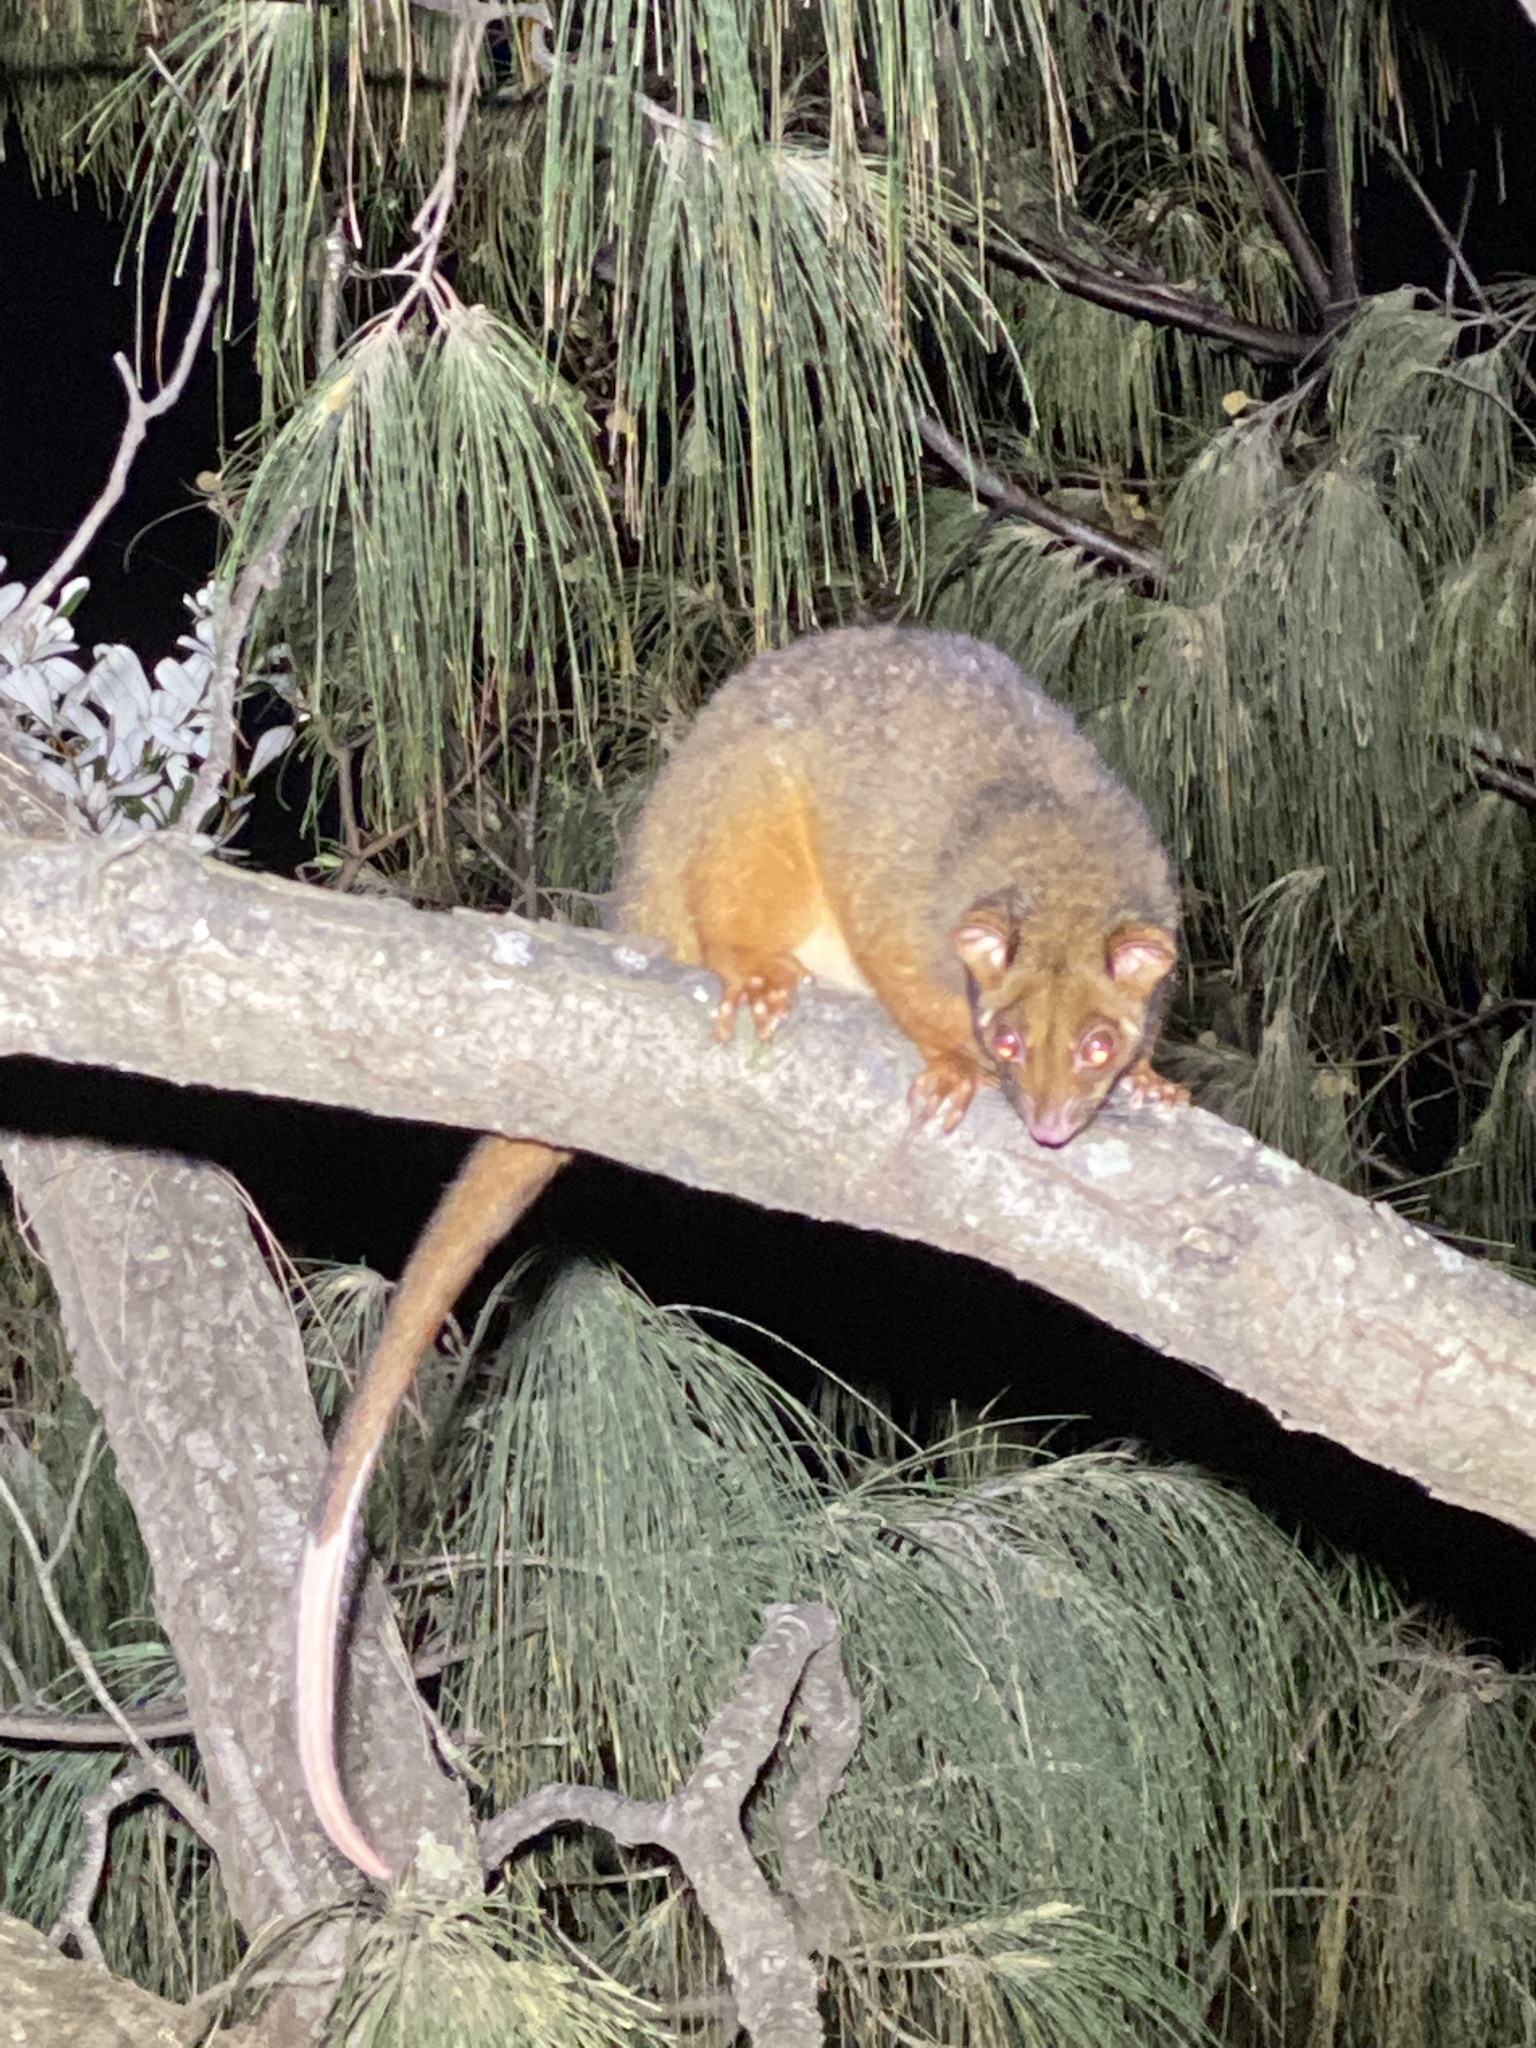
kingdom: Animalia
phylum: Chordata
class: Mammalia
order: Diprotodontia
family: Pseudocheiridae
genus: Pseudocheirus
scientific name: Pseudocheirus peregrinus
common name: Common ringtail possum
